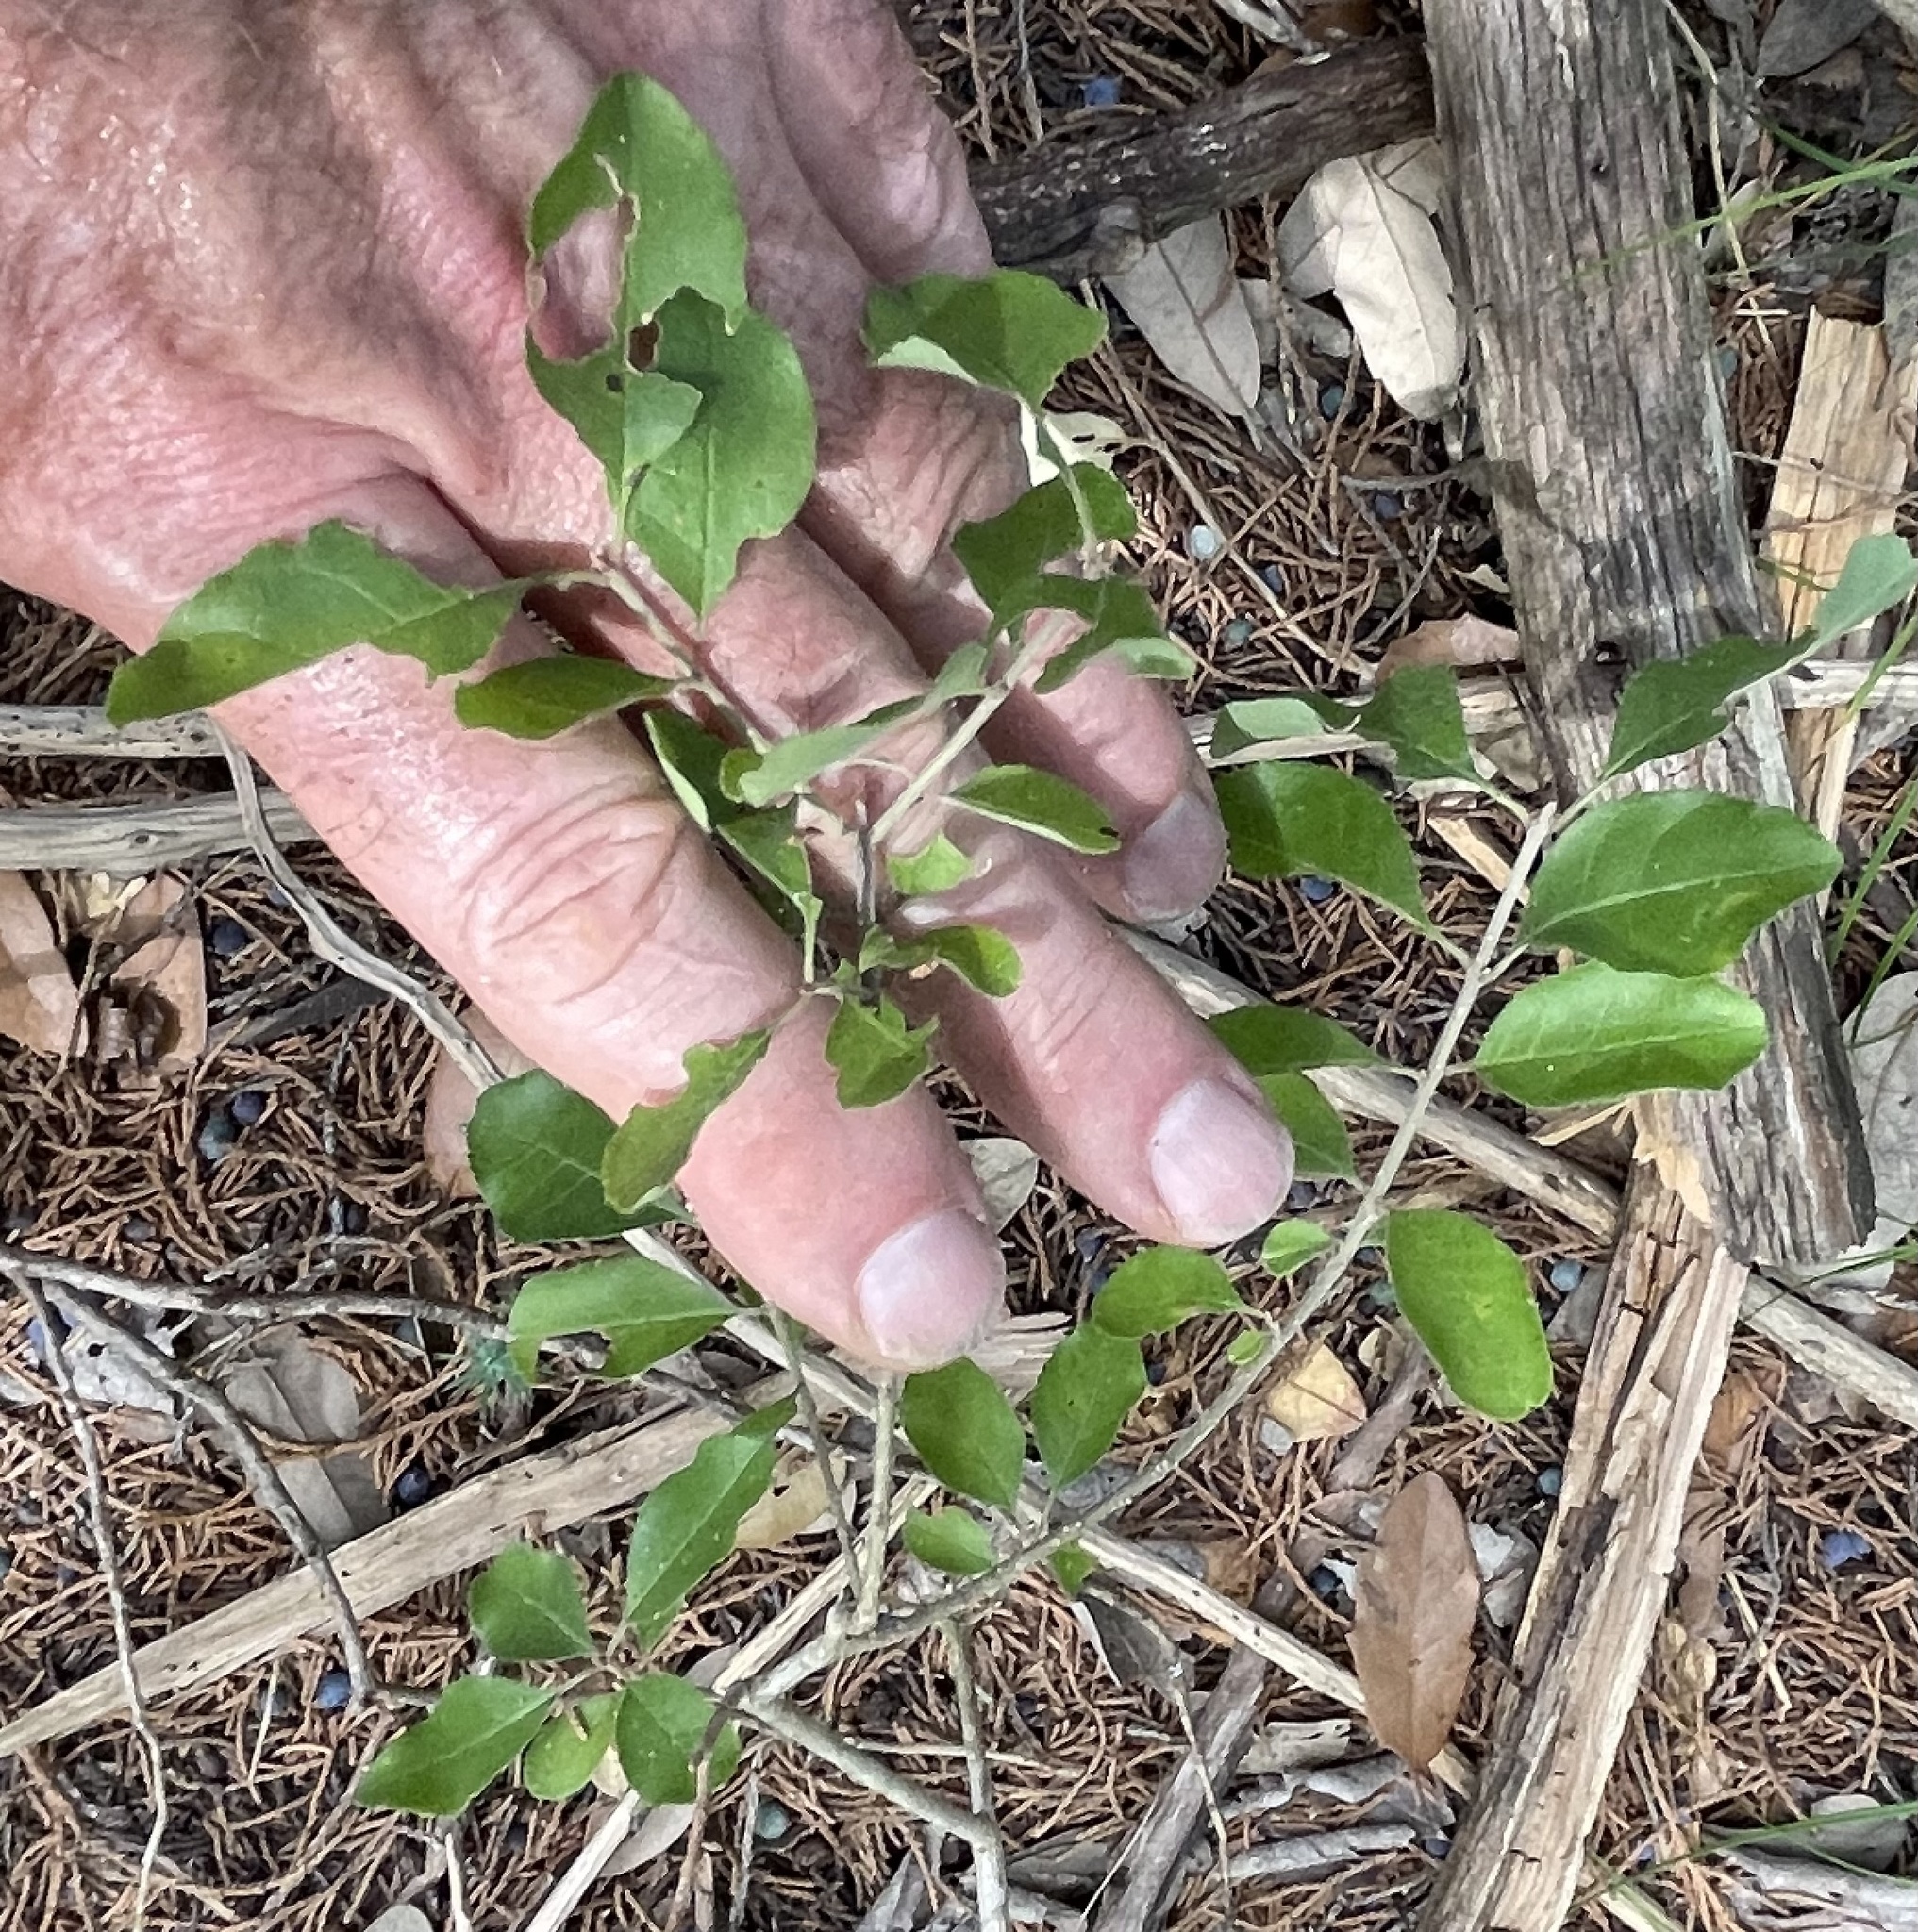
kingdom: Plantae
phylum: Tracheophyta
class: Magnoliopsida
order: Lamiales
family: Oleaceae
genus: Forestiera
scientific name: Forestiera pubescens
